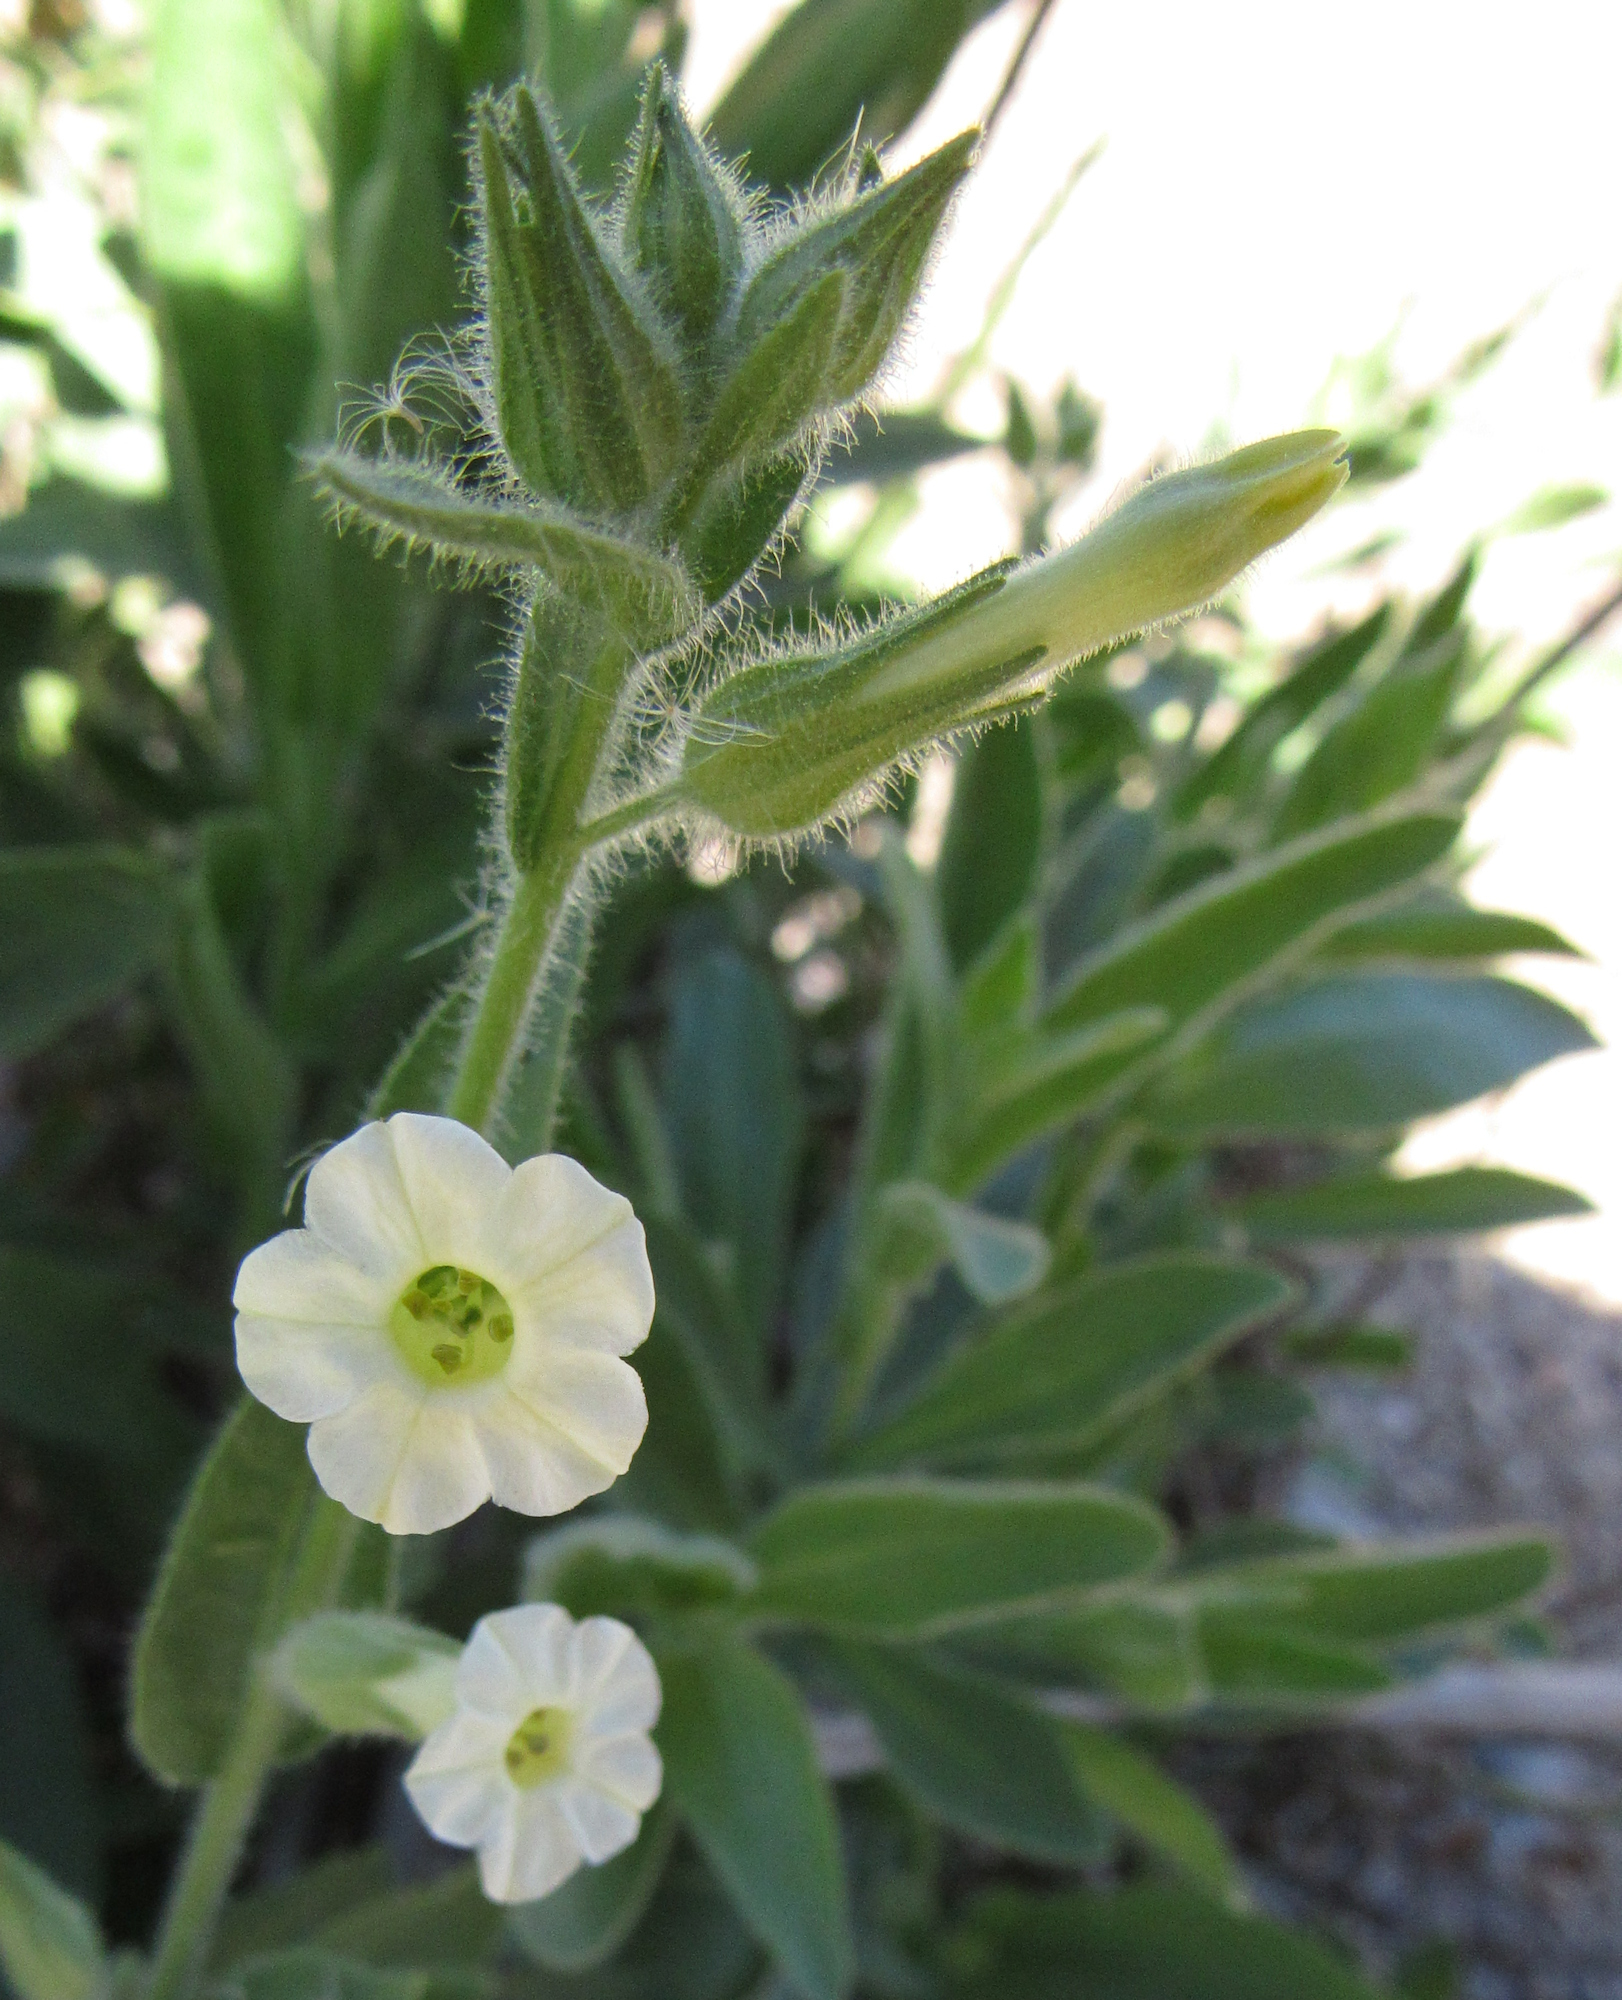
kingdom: Plantae
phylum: Tracheophyta
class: Magnoliopsida
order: Solanales
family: Solanaceae
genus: Nicotiana
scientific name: Nicotiana obtusifolia
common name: Desert tobacco
